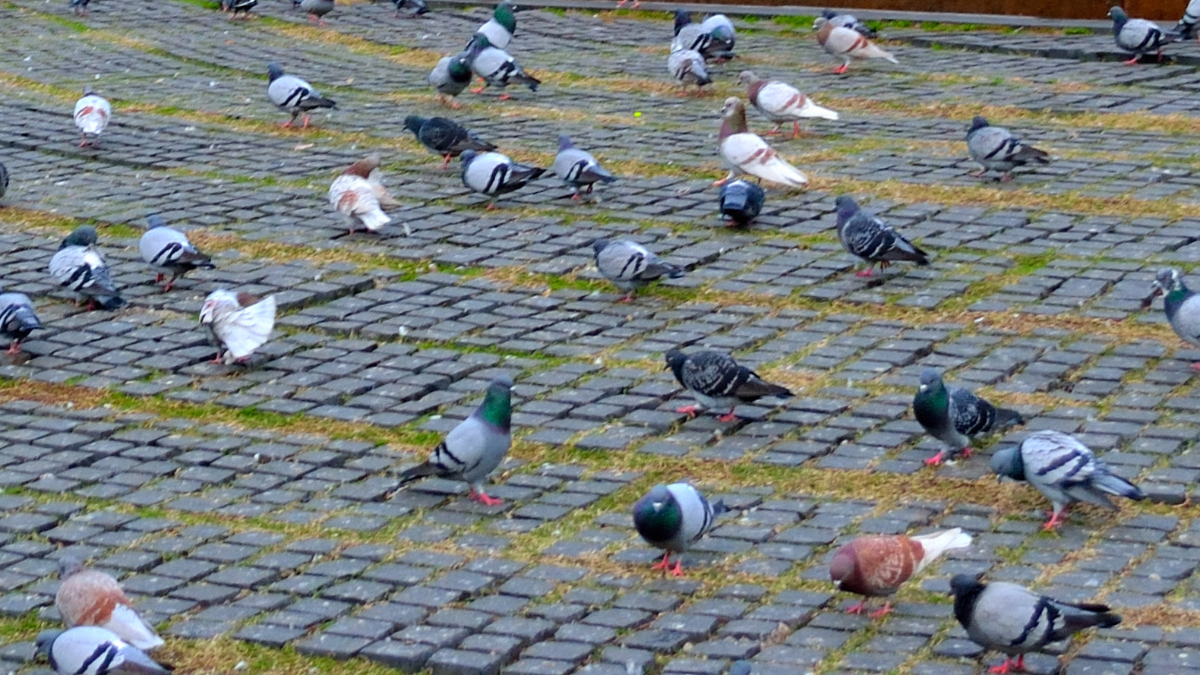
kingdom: Animalia
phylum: Chordata
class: Aves
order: Columbiformes
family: Columbidae
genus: Columba
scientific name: Columba livia
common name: Rock pigeon
